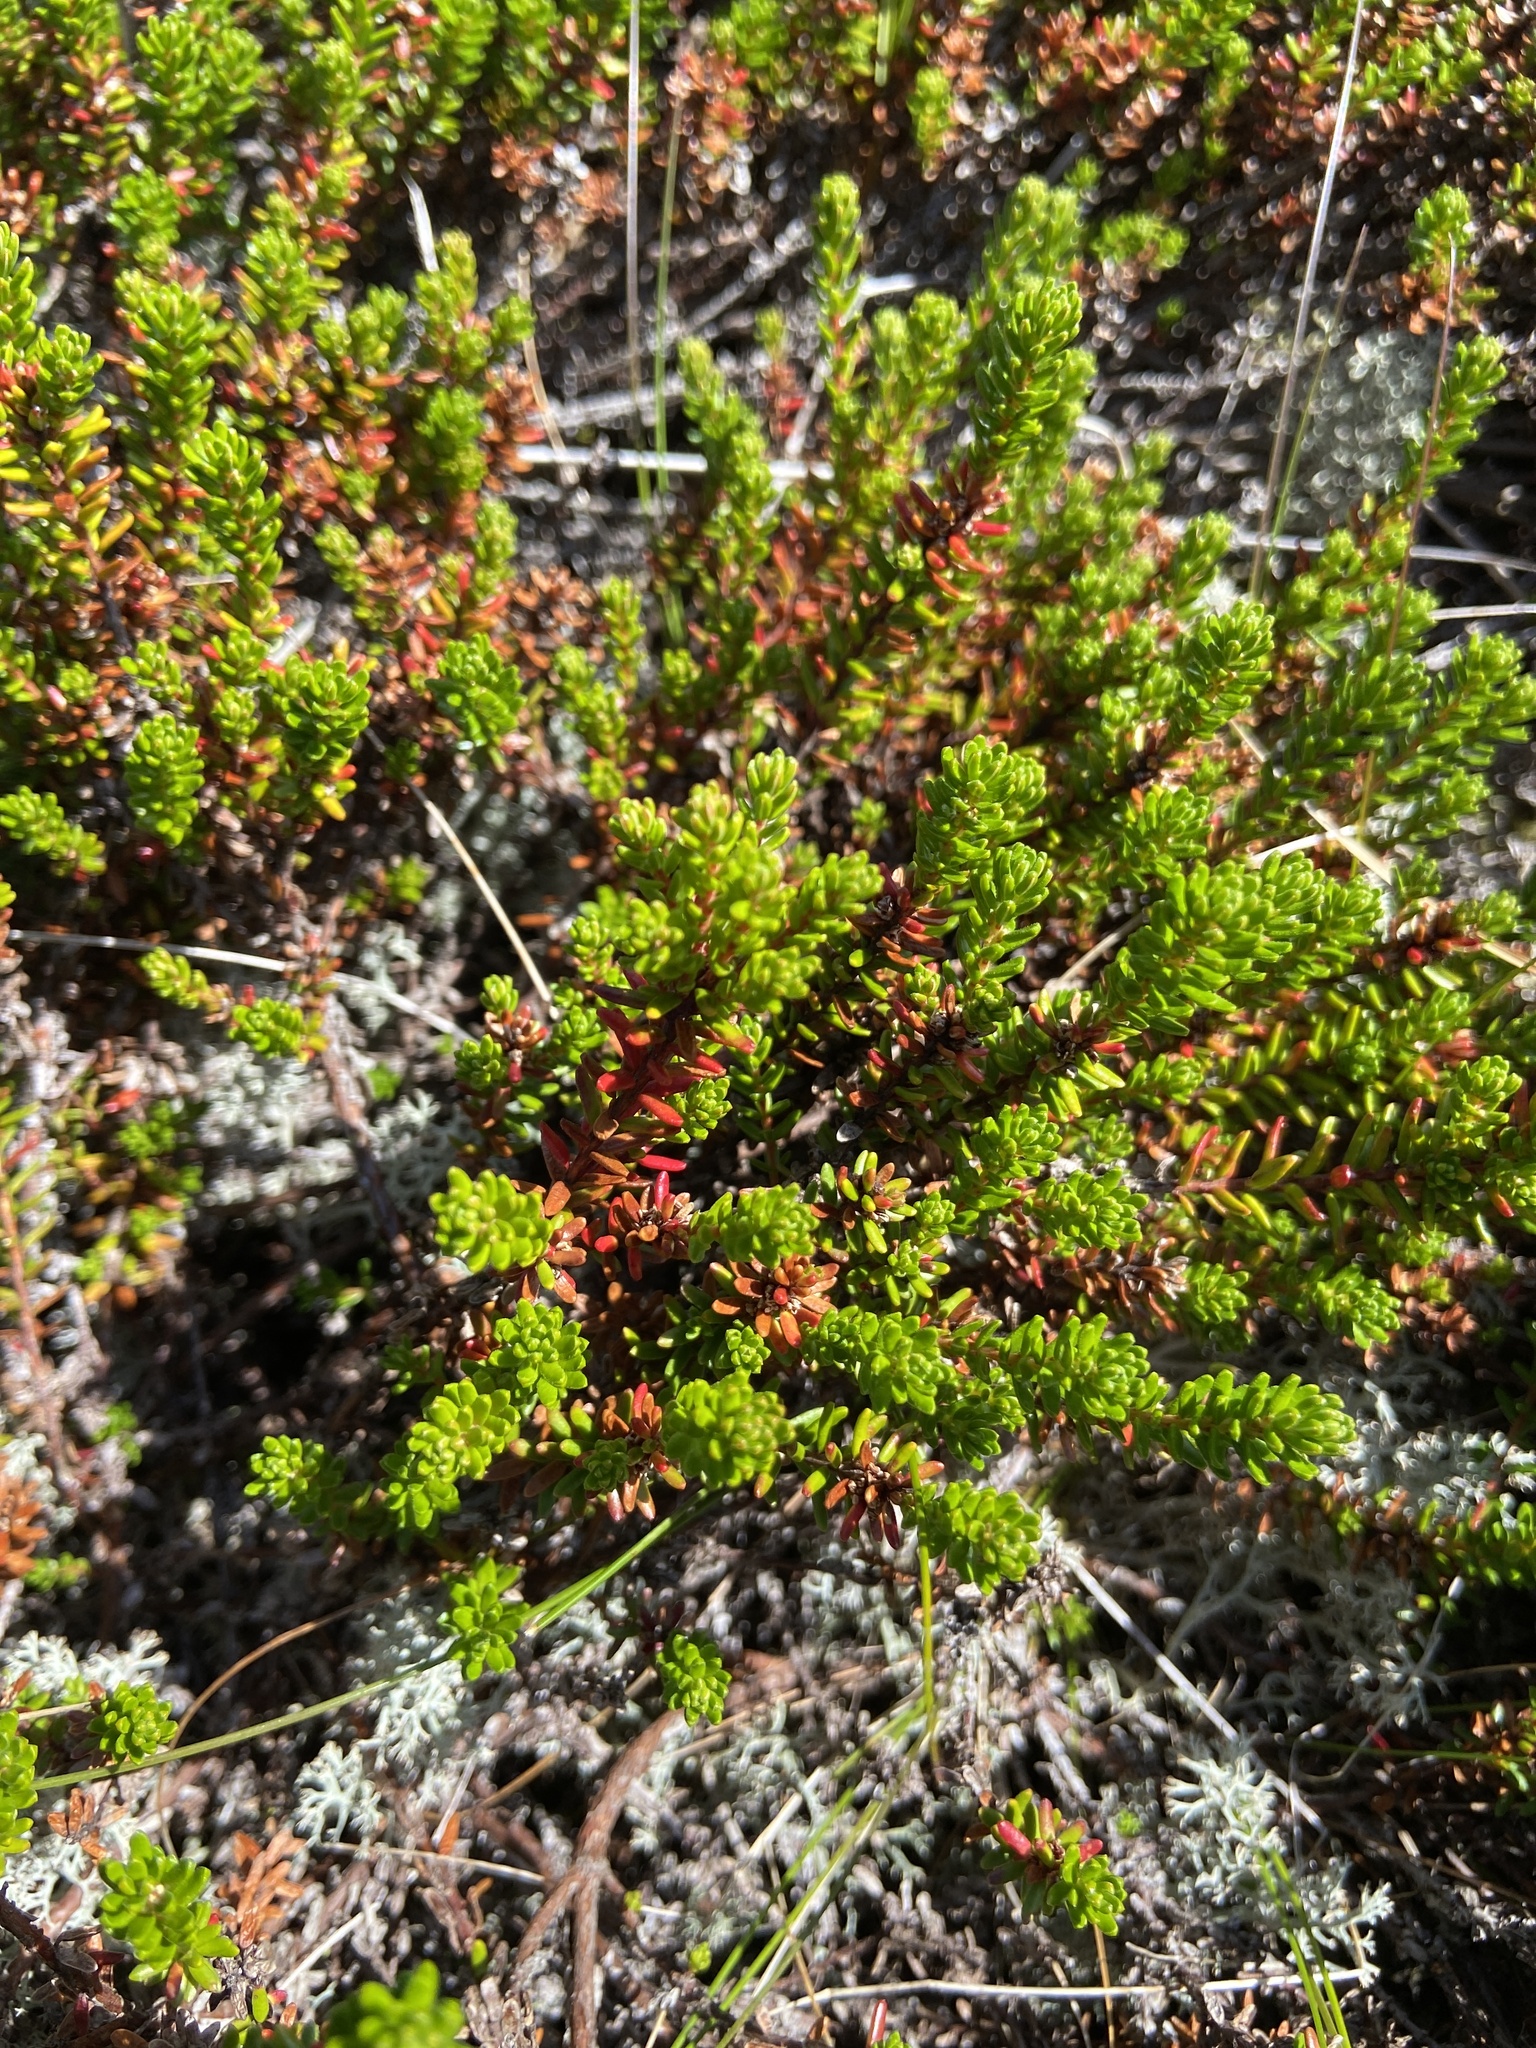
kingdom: Plantae
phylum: Tracheophyta
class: Magnoliopsida
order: Ericales
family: Ericaceae
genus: Empetrum
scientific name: Empetrum nigrum
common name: Black crowberry
